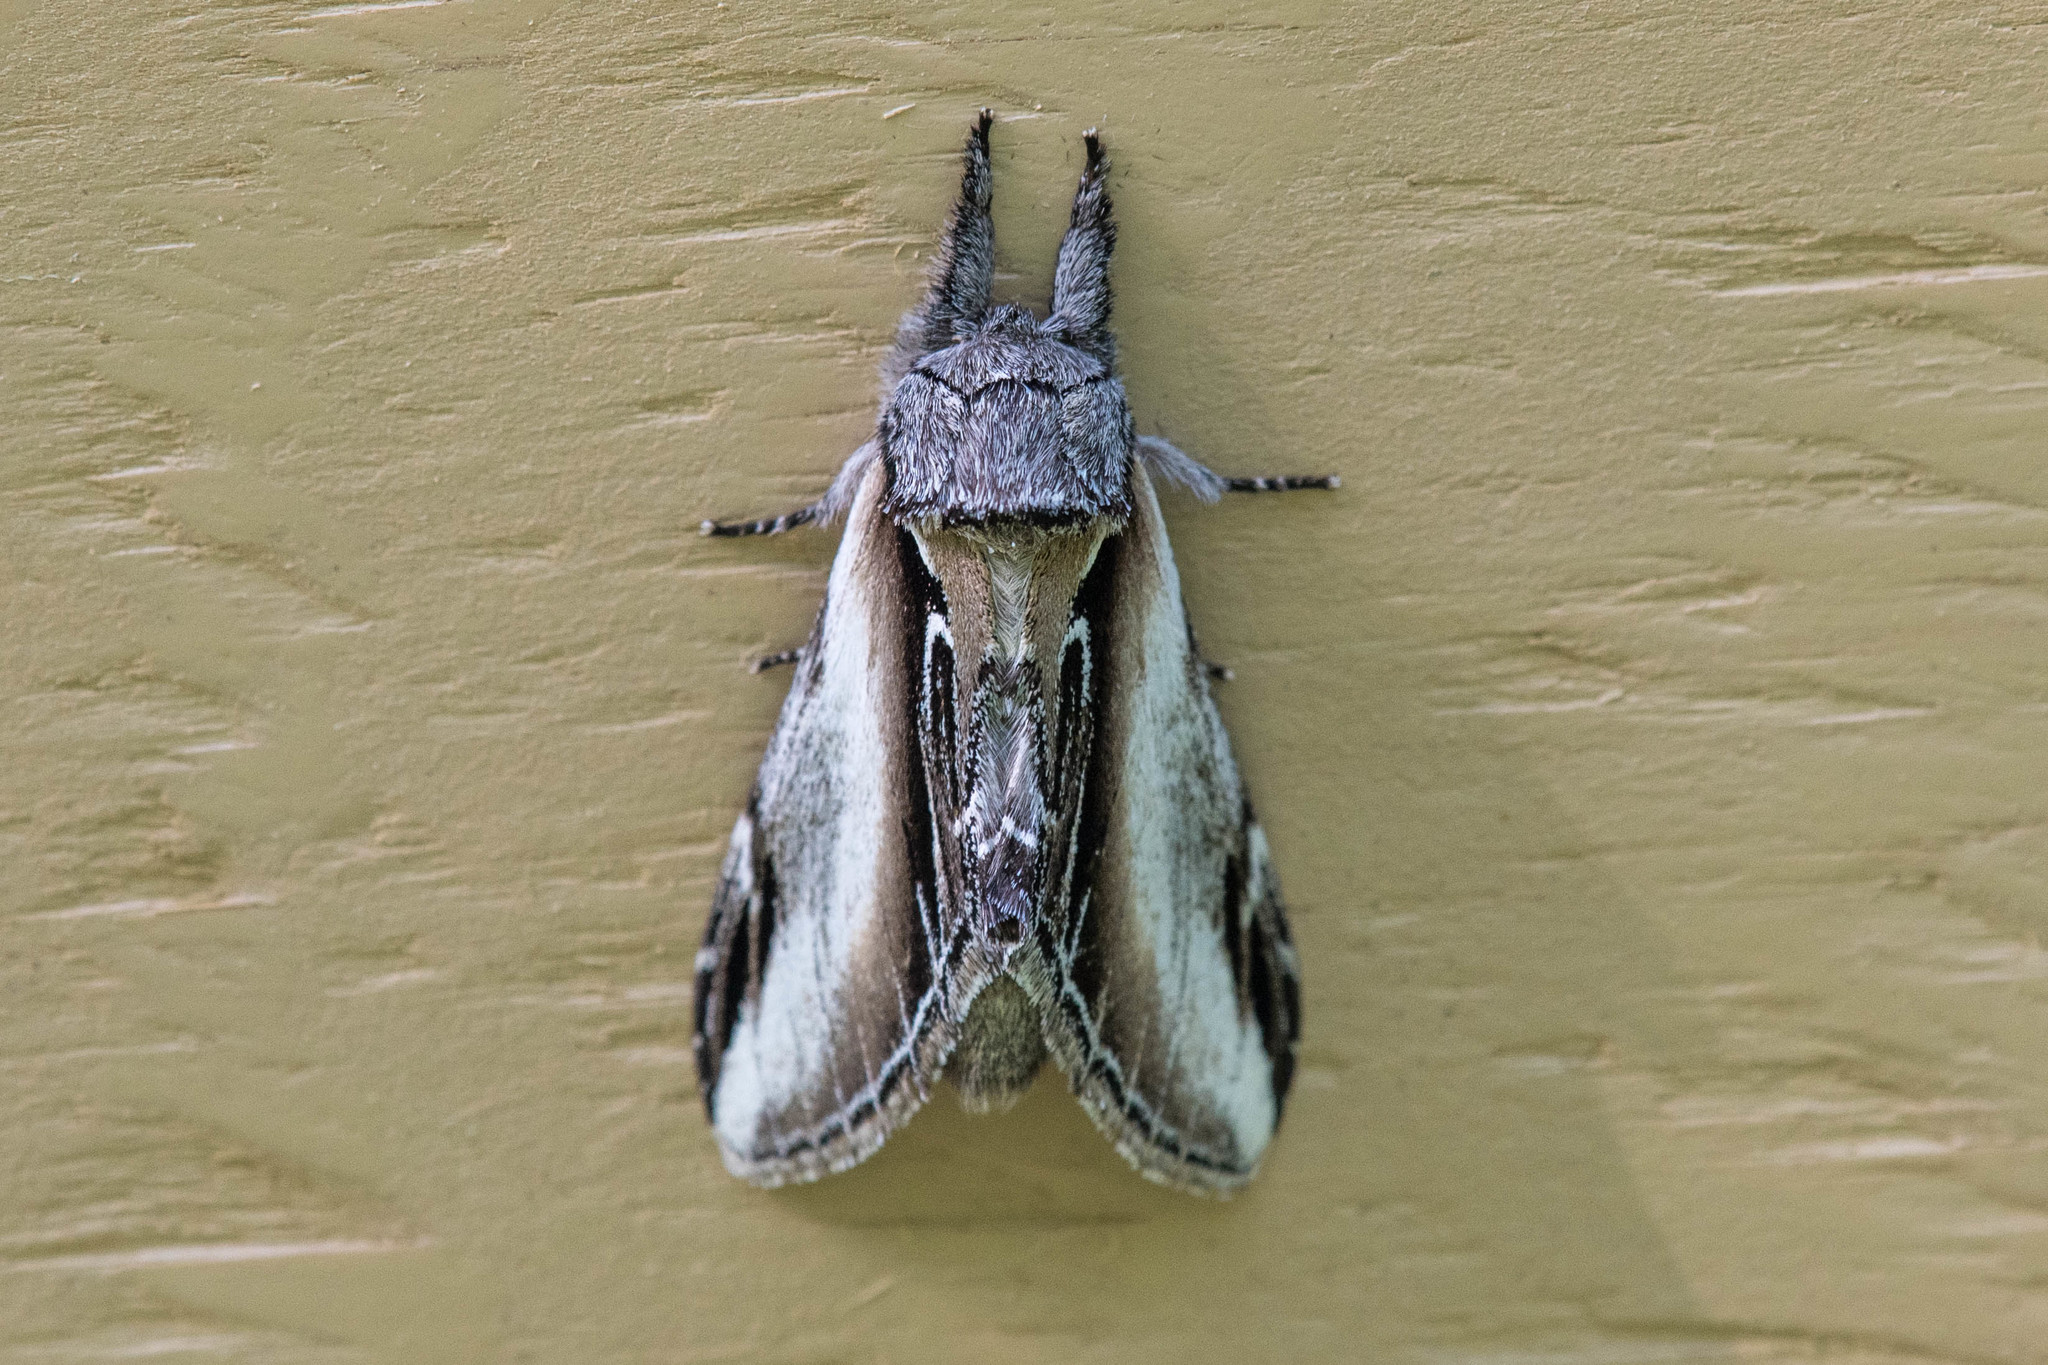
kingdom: Animalia
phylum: Arthropoda
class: Insecta
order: Lepidoptera
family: Notodontidae
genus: Pheosia
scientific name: Pheosia rimosa
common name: Black-rimmed prominent
